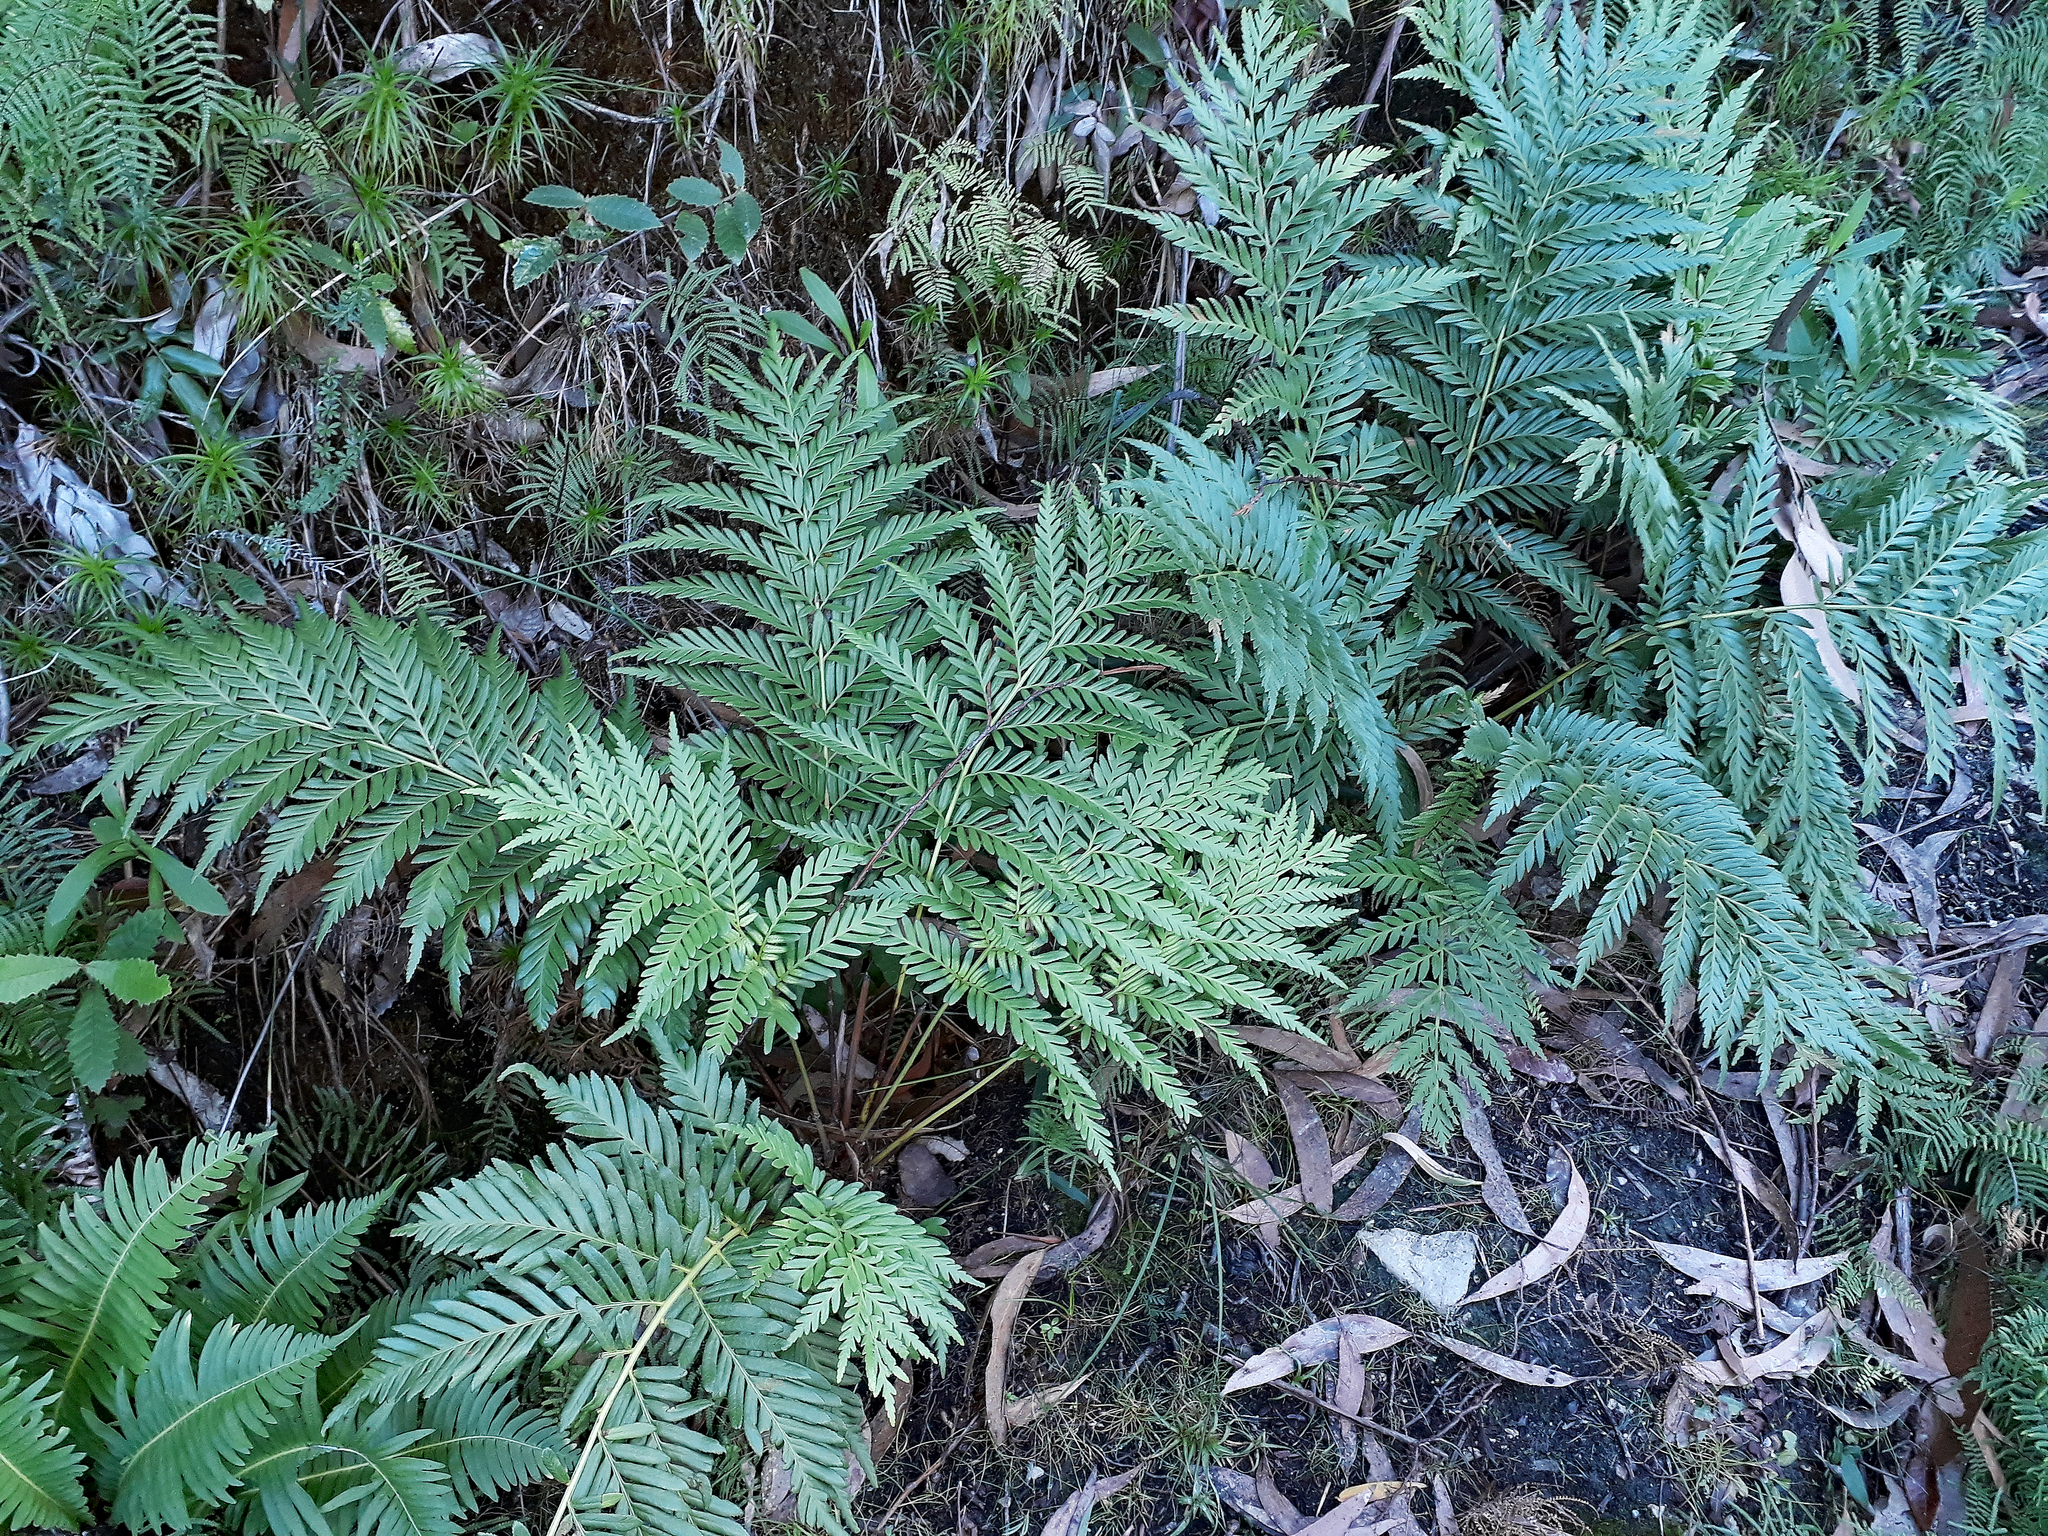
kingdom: Plantae
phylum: Tracheophyta
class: Polypodiopsida
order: Osmundales
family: Osmundaceae
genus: Todea
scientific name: Todea barbara
